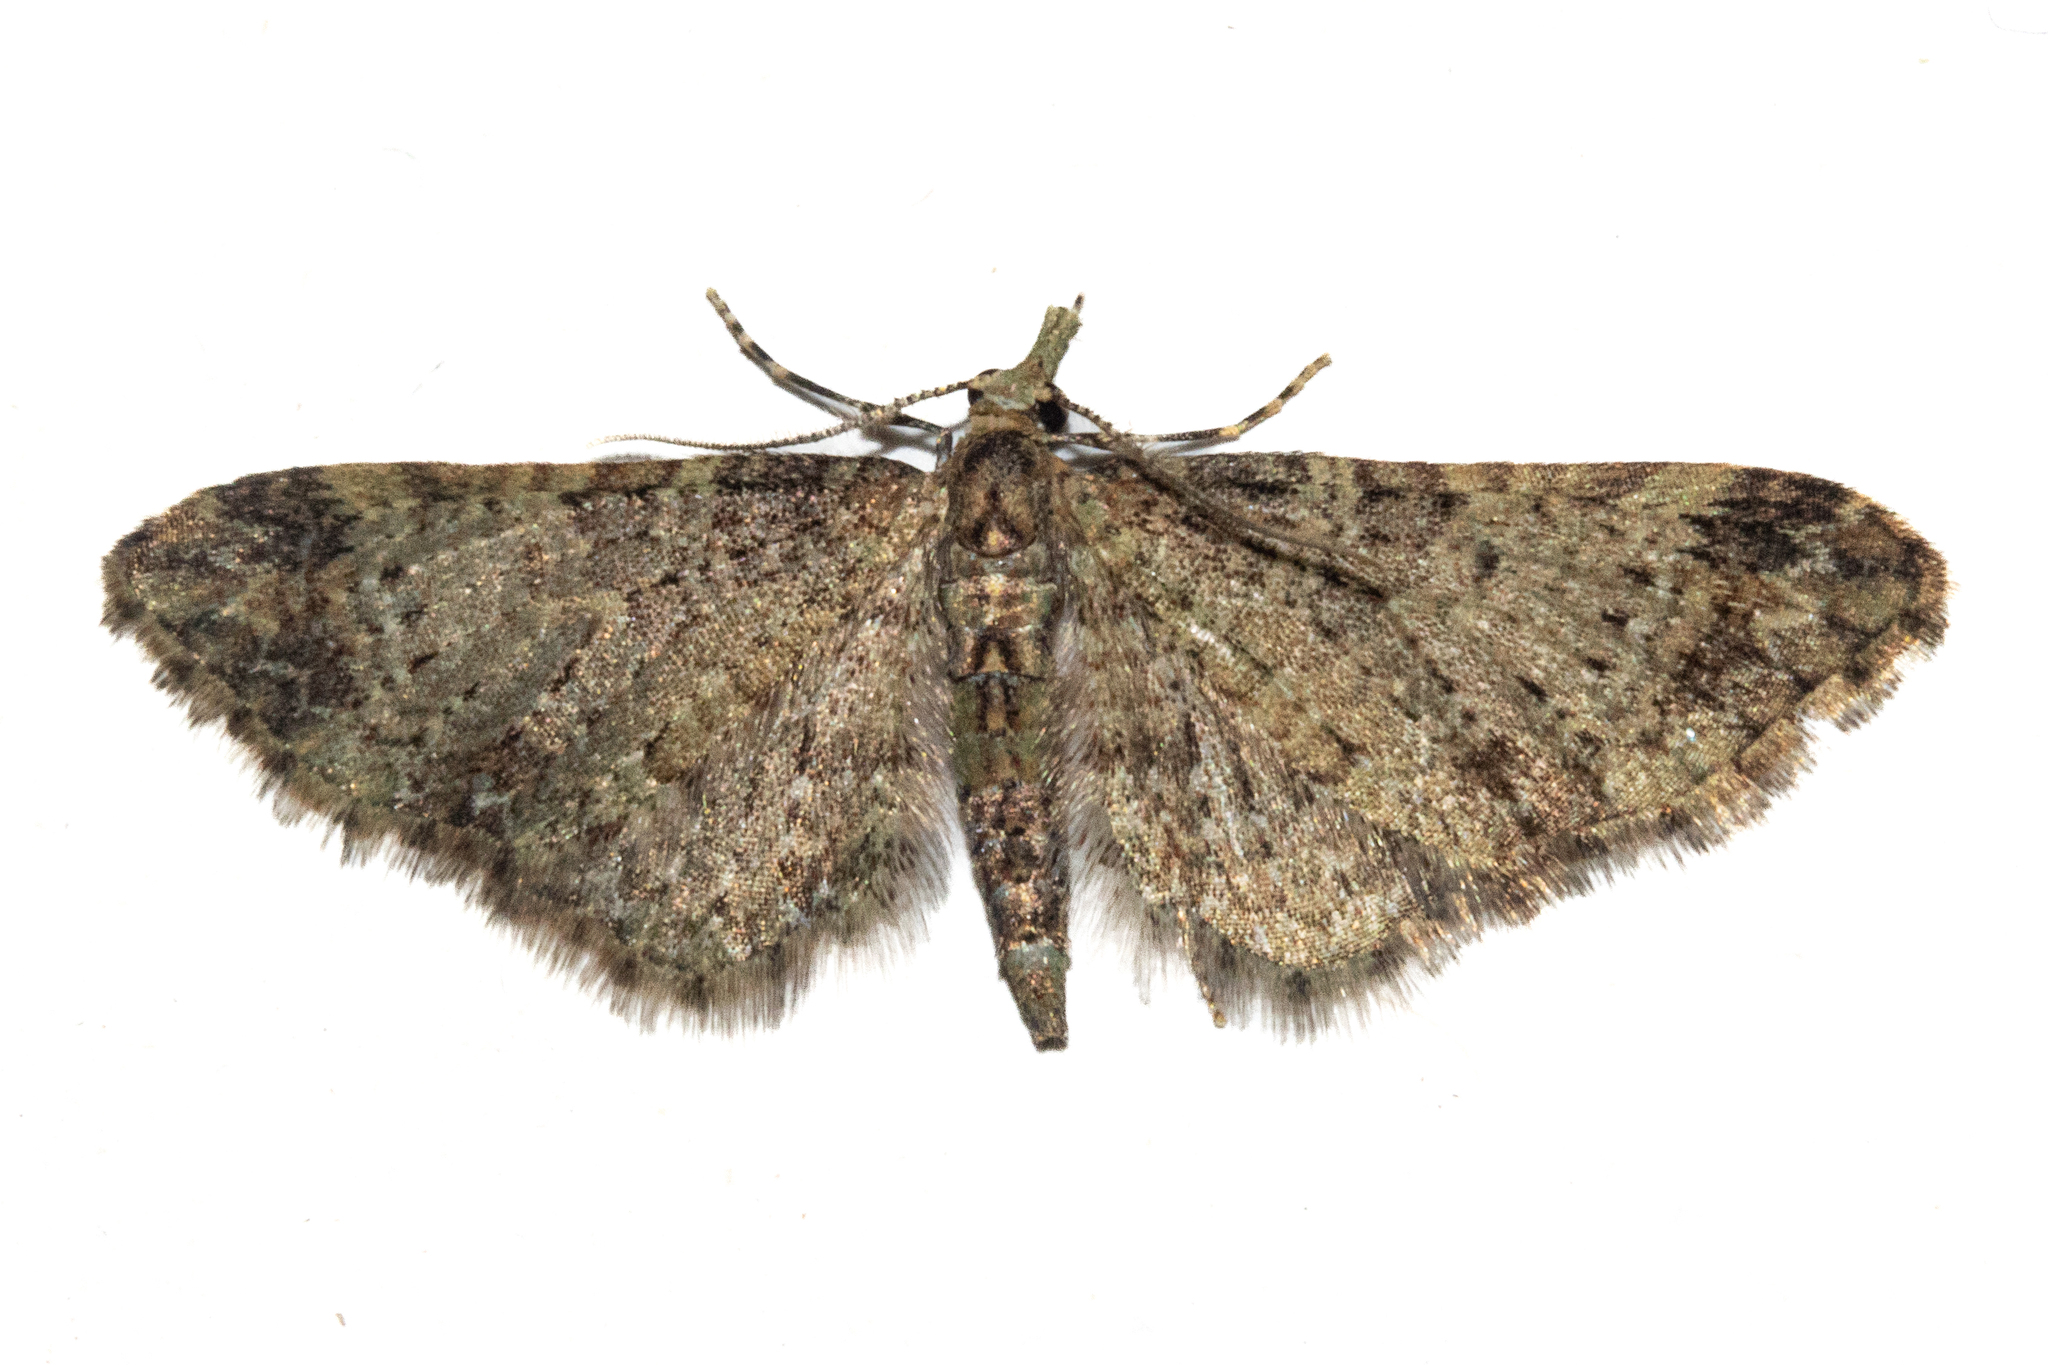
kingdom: Animalia
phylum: Arthropoda
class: Insecta
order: Lepidoptera
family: Geometridae
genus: Pasiphila
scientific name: Pasiphila plinthina
